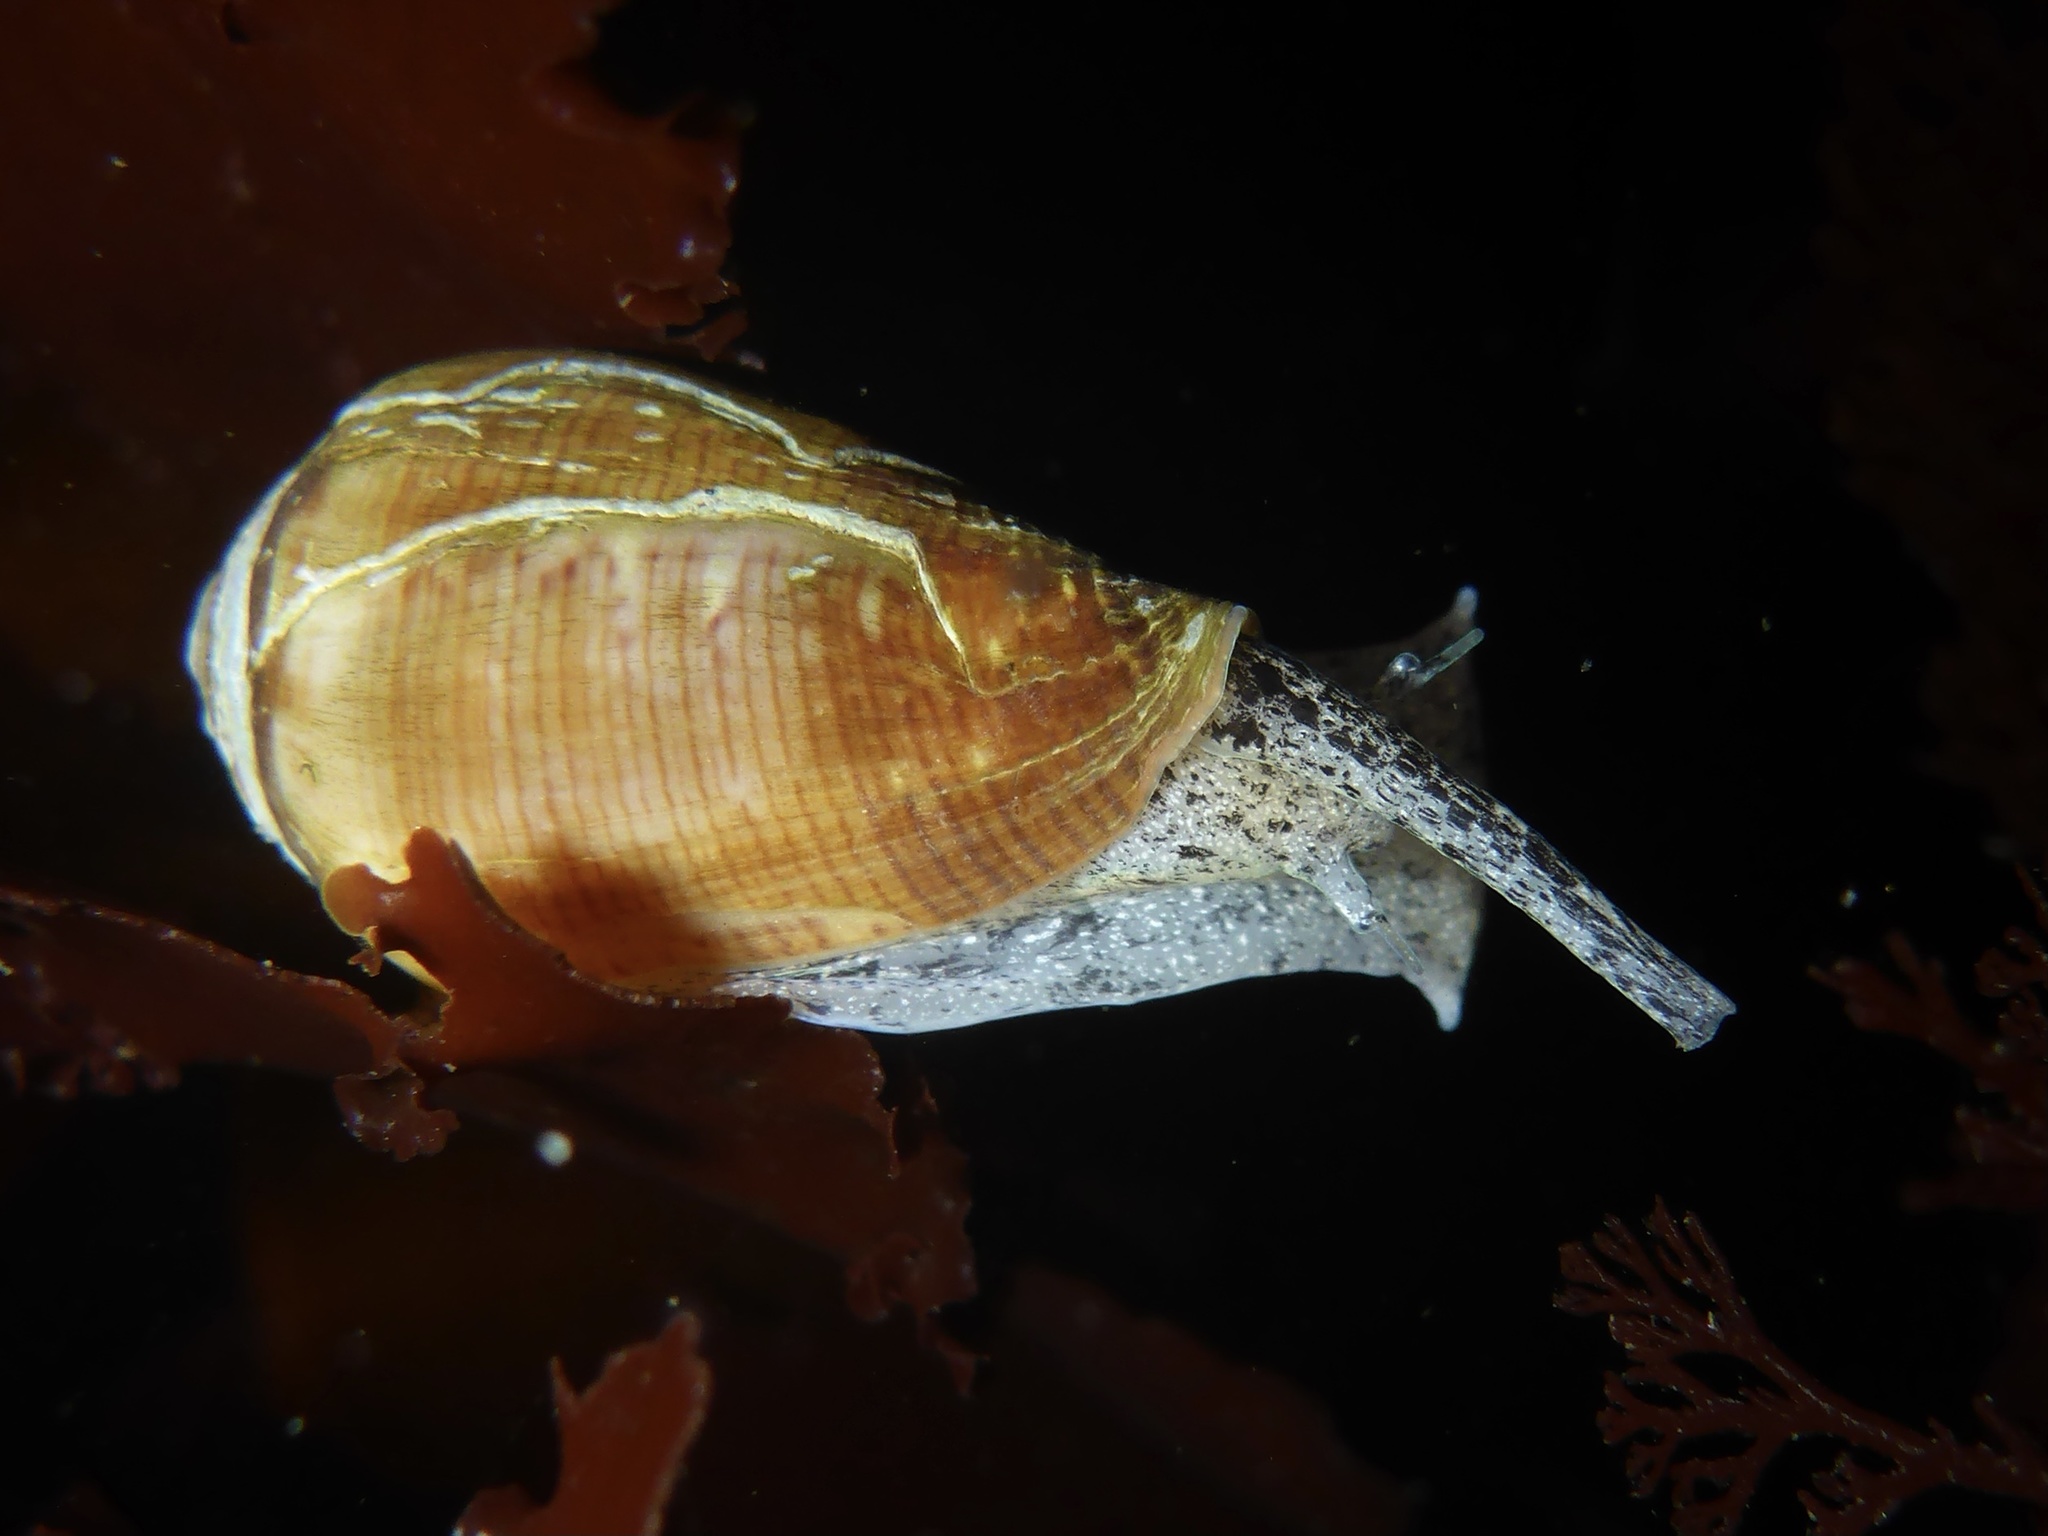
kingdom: Animalia
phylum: Mollusca
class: Gastropoda
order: Neogastropoda
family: Conidae
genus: Californiconus
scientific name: Californiconus californicus
